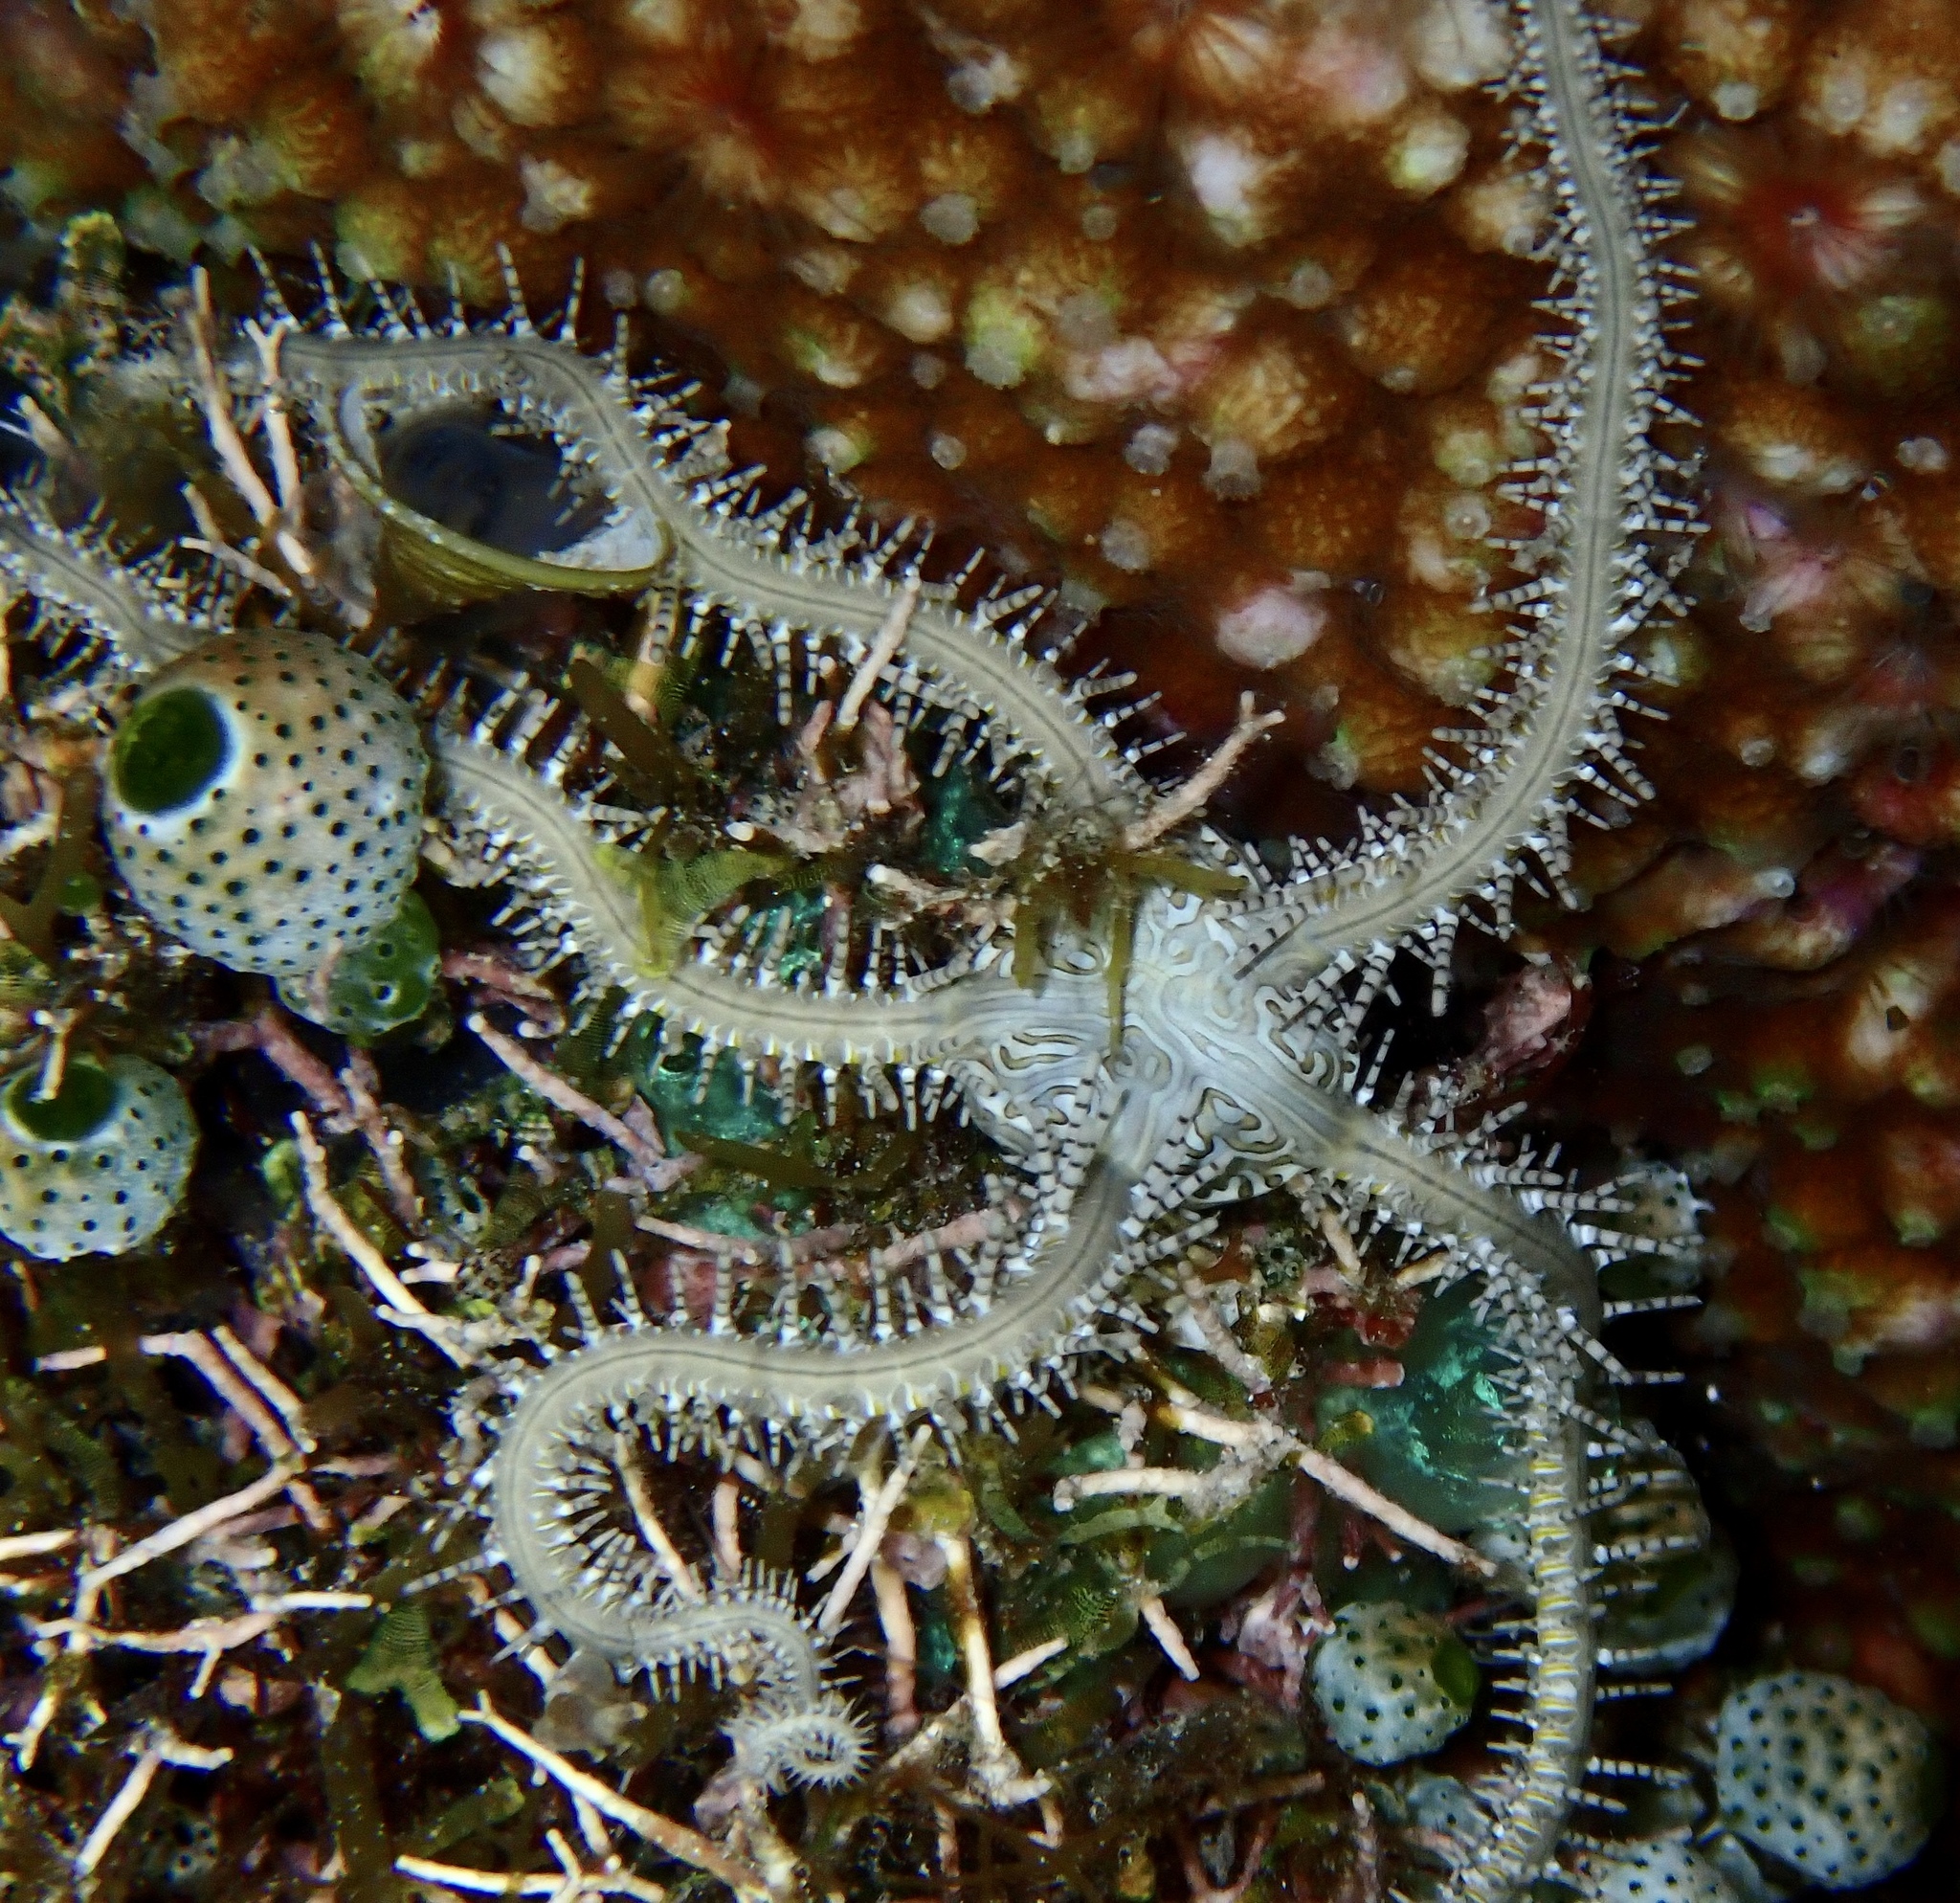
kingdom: Animalia
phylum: Echinodermata
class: Ophiuroidea
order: Ophiacanthida
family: Ophiocomidae
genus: Ophiomastix
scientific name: Ophiomastix pictum
